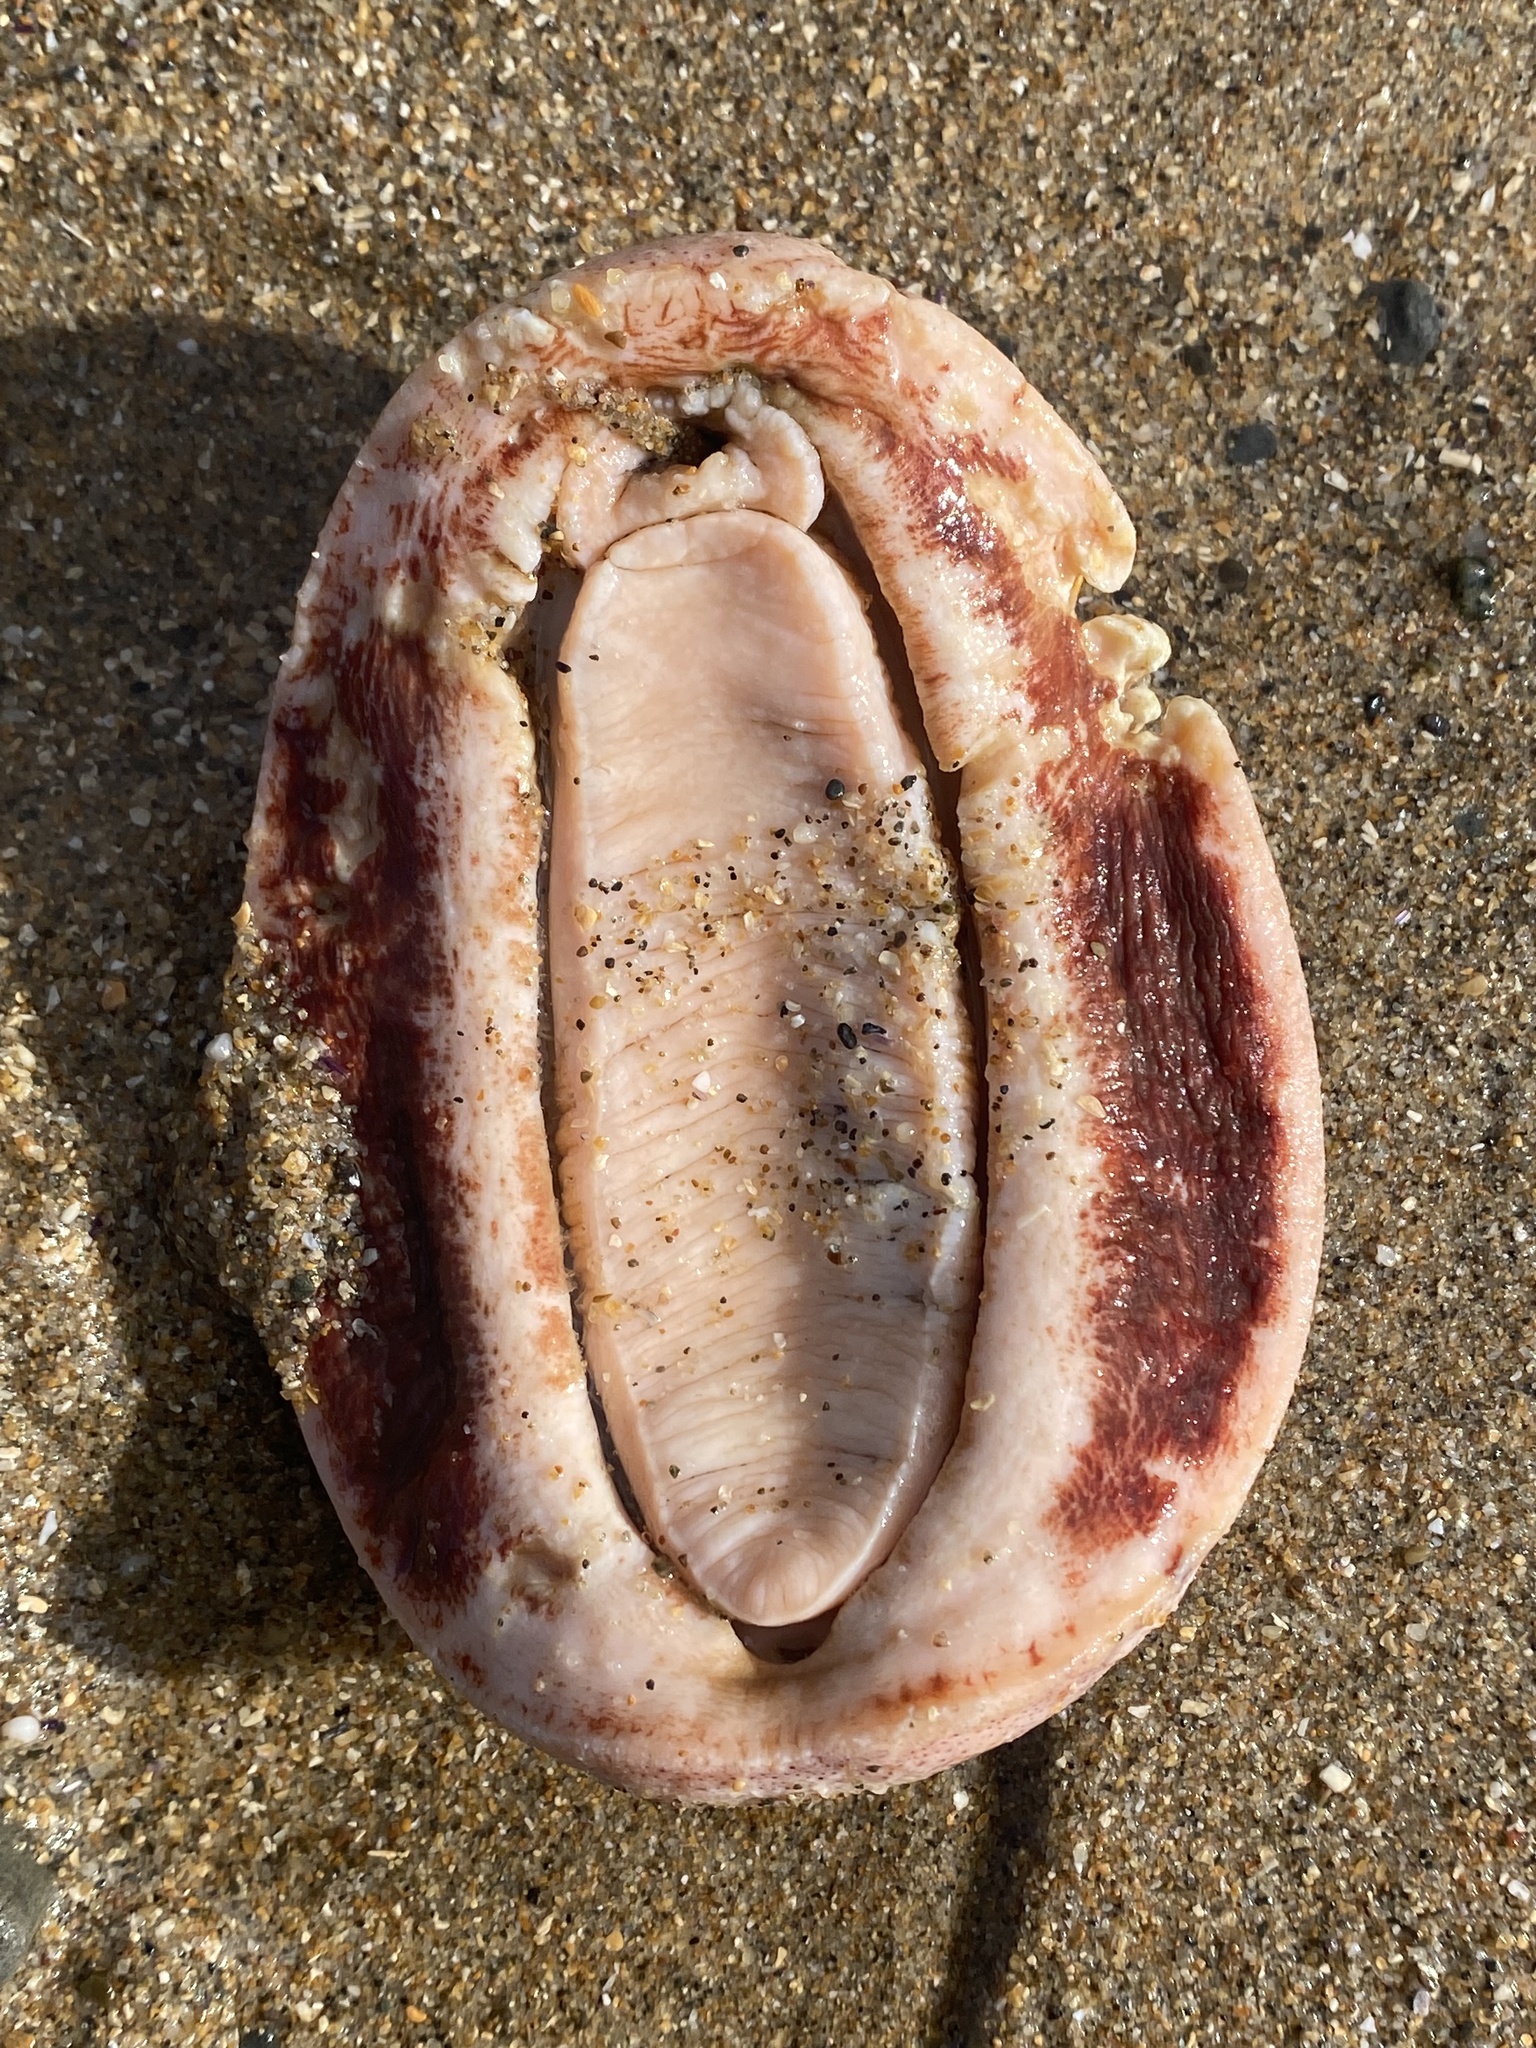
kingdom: Animalia
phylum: Mollusca
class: Polyplacophora
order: Chitonida
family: Acanthochitonidae
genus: Cryptochiton
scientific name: Cryptochiton stelleri
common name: Giant pacific chiton
